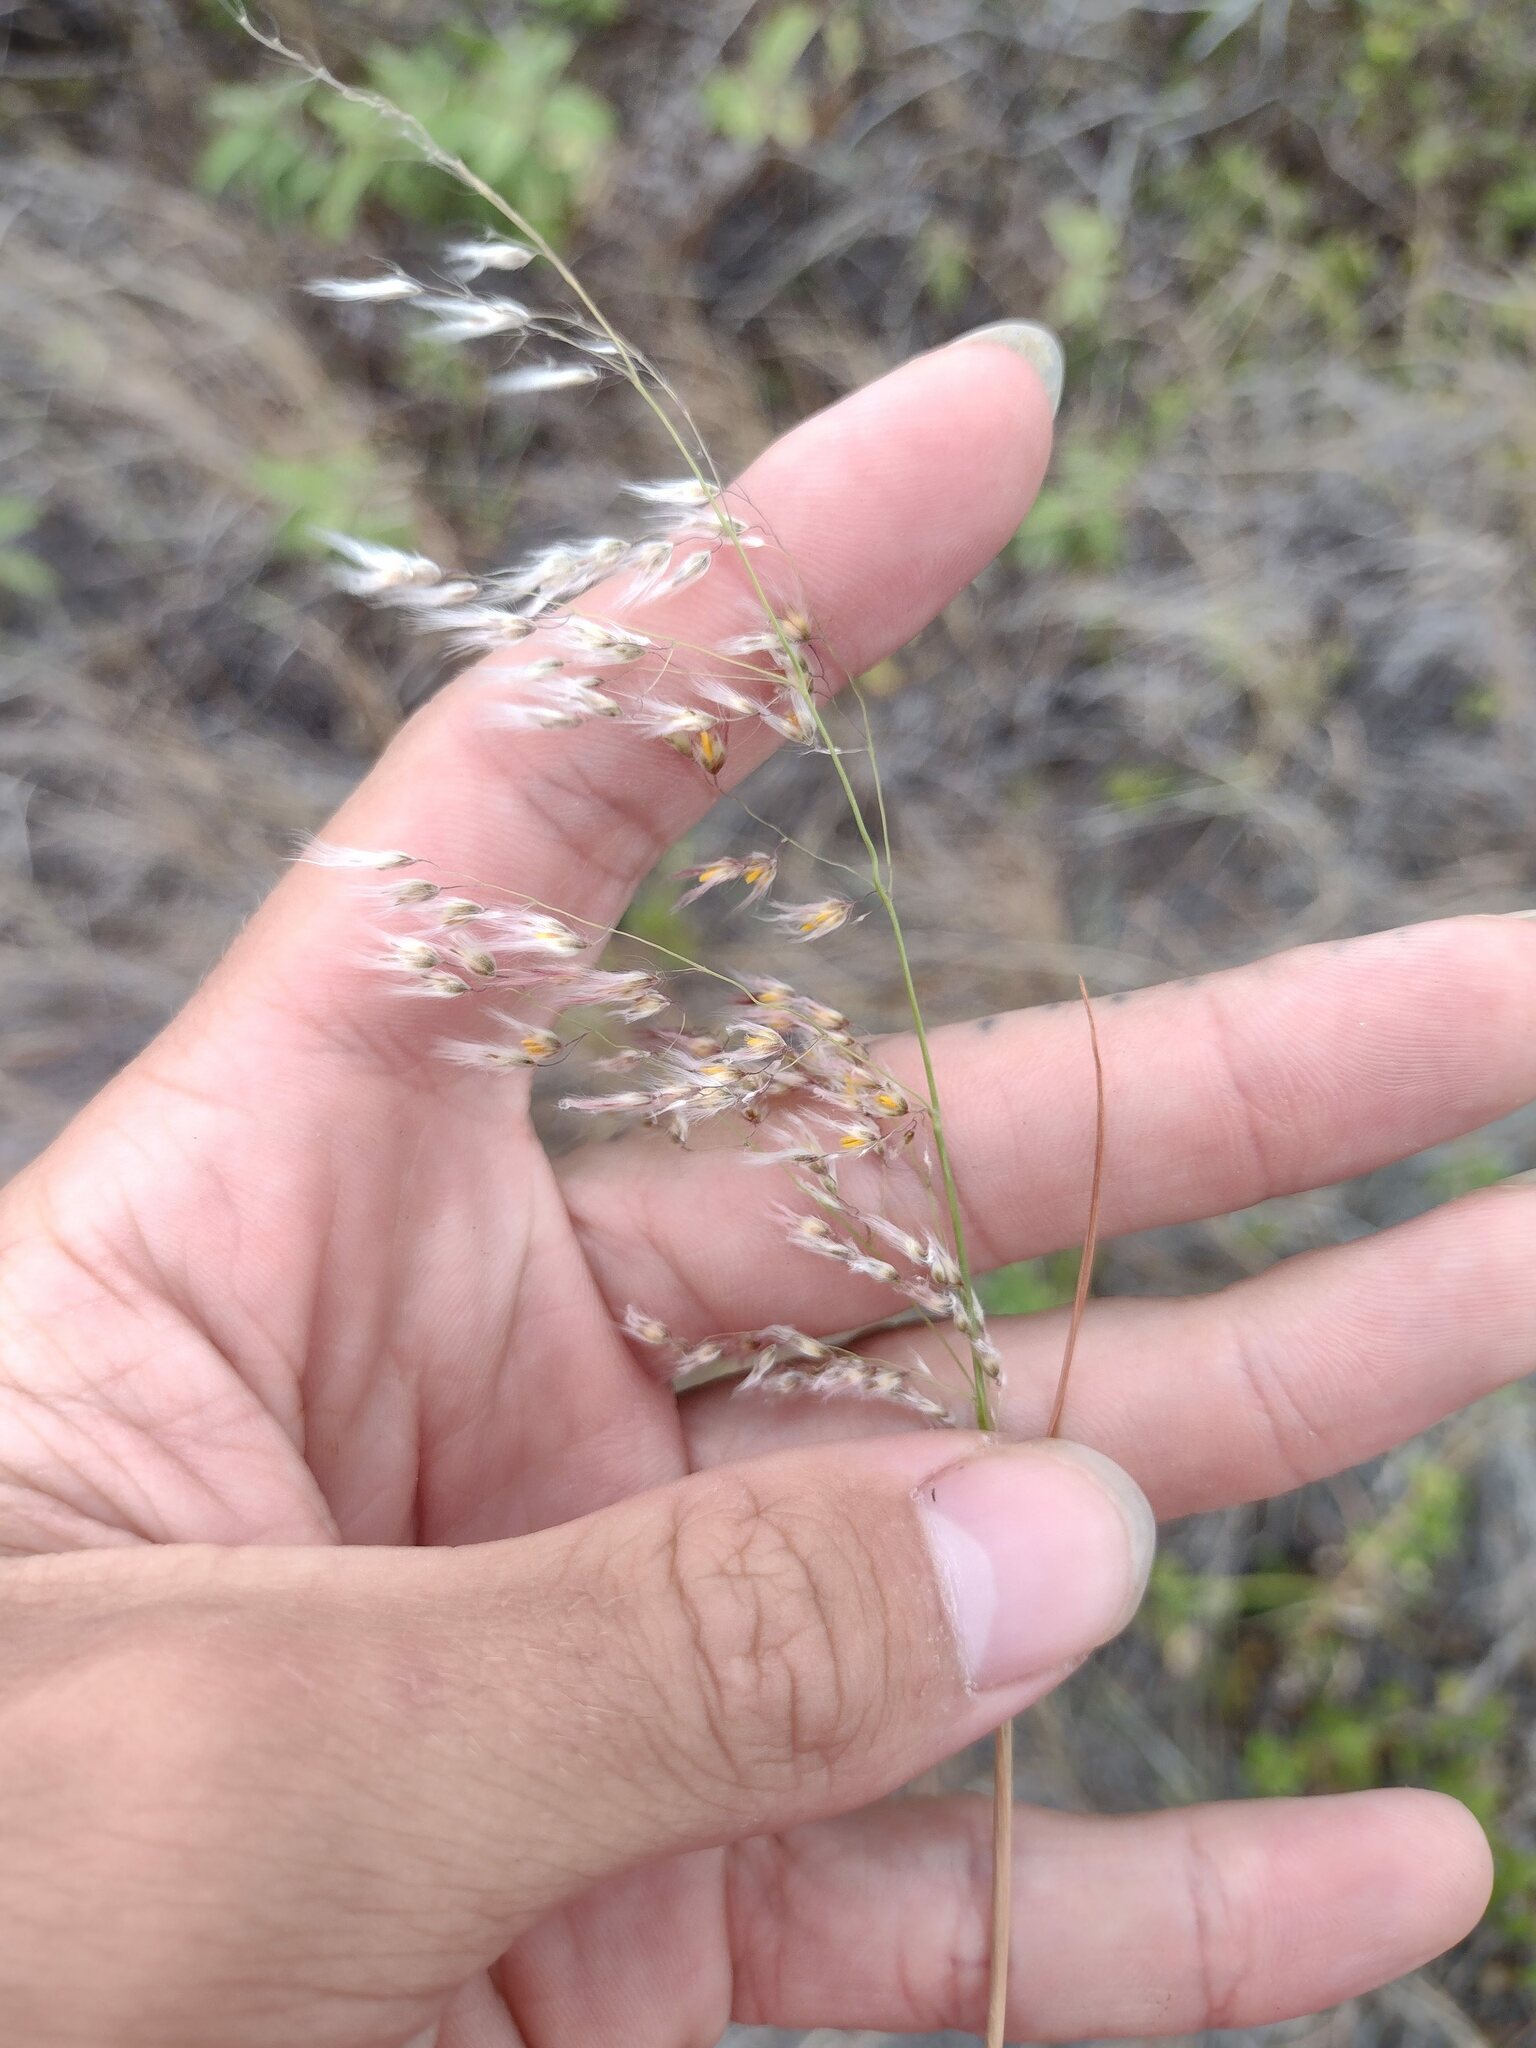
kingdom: Plantae
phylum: Tracheophyta
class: Liliopsida
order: Poales
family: Poaceae
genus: Melinis
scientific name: Melinis repens
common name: Rose natal grass
